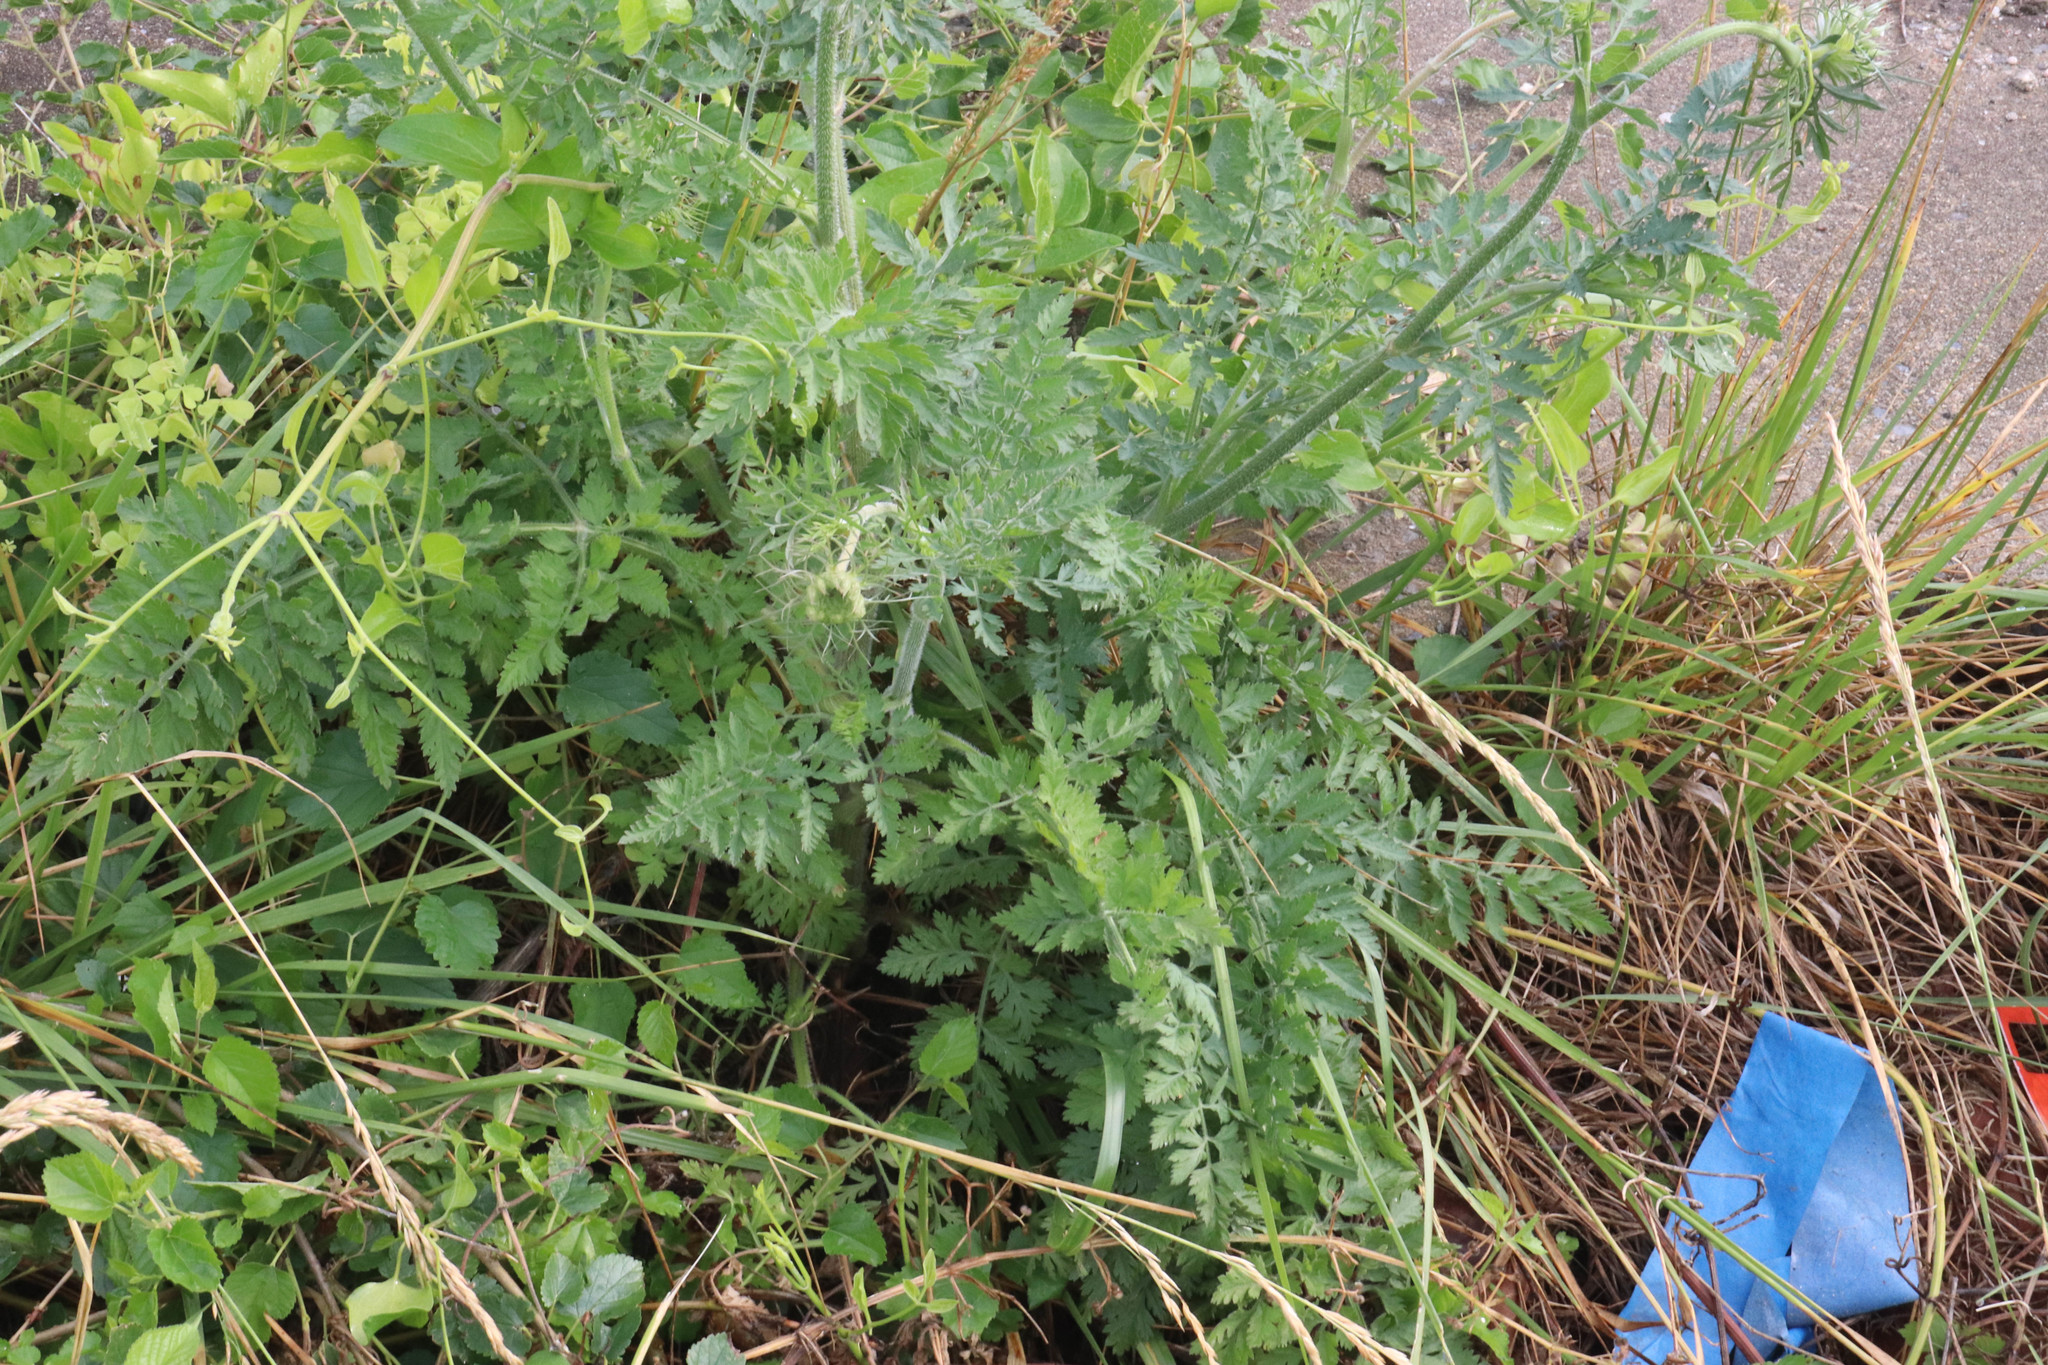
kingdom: Plantae
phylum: Tracheophyta
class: Magnoliopsida
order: Apiales
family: Apiaceae
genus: Daucus
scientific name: Daucus carota
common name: Wild carrot
